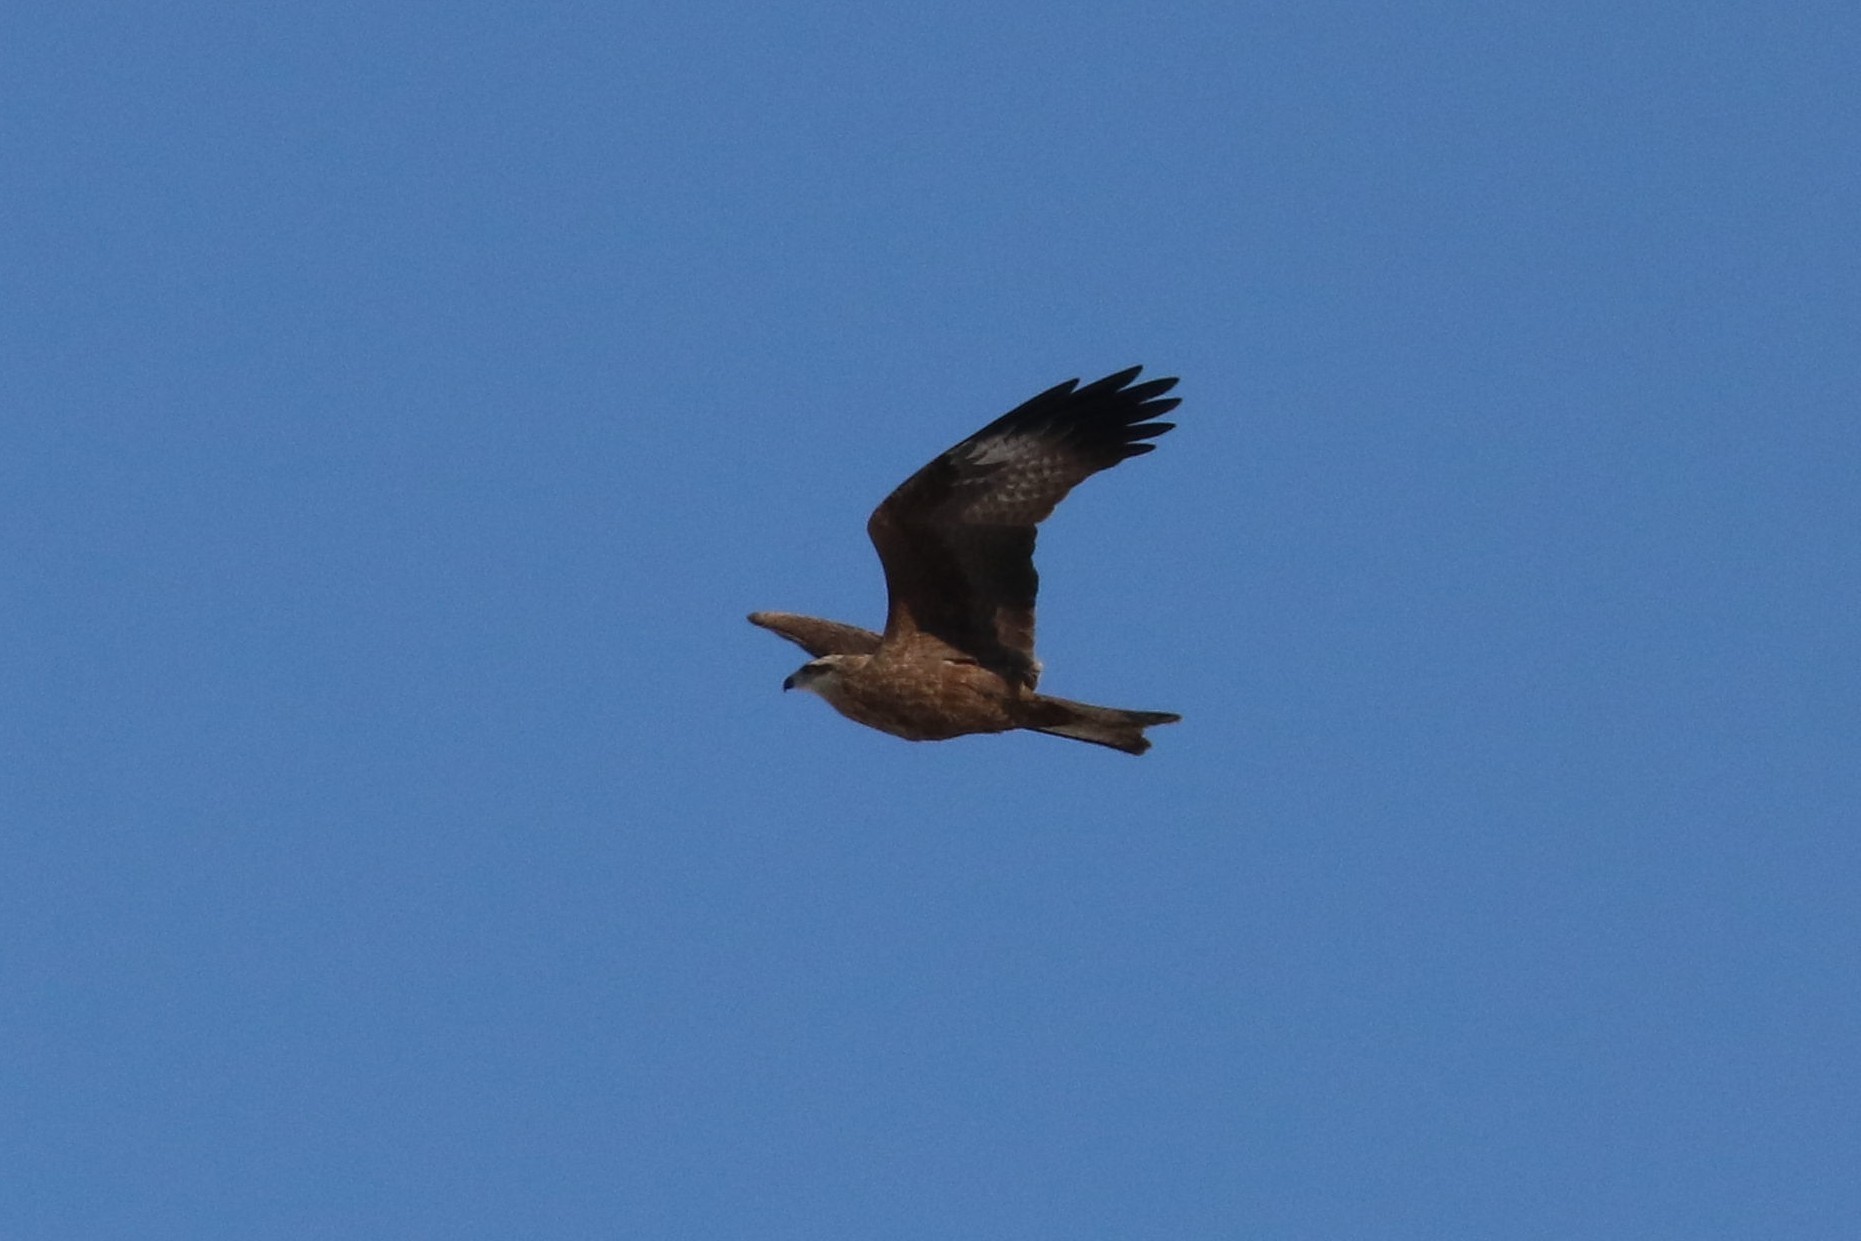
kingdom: Animalia
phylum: Chordata
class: Aves
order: Accipitriformes
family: Accipitridae
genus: Milvus
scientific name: Milvus migrans
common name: Black kite
